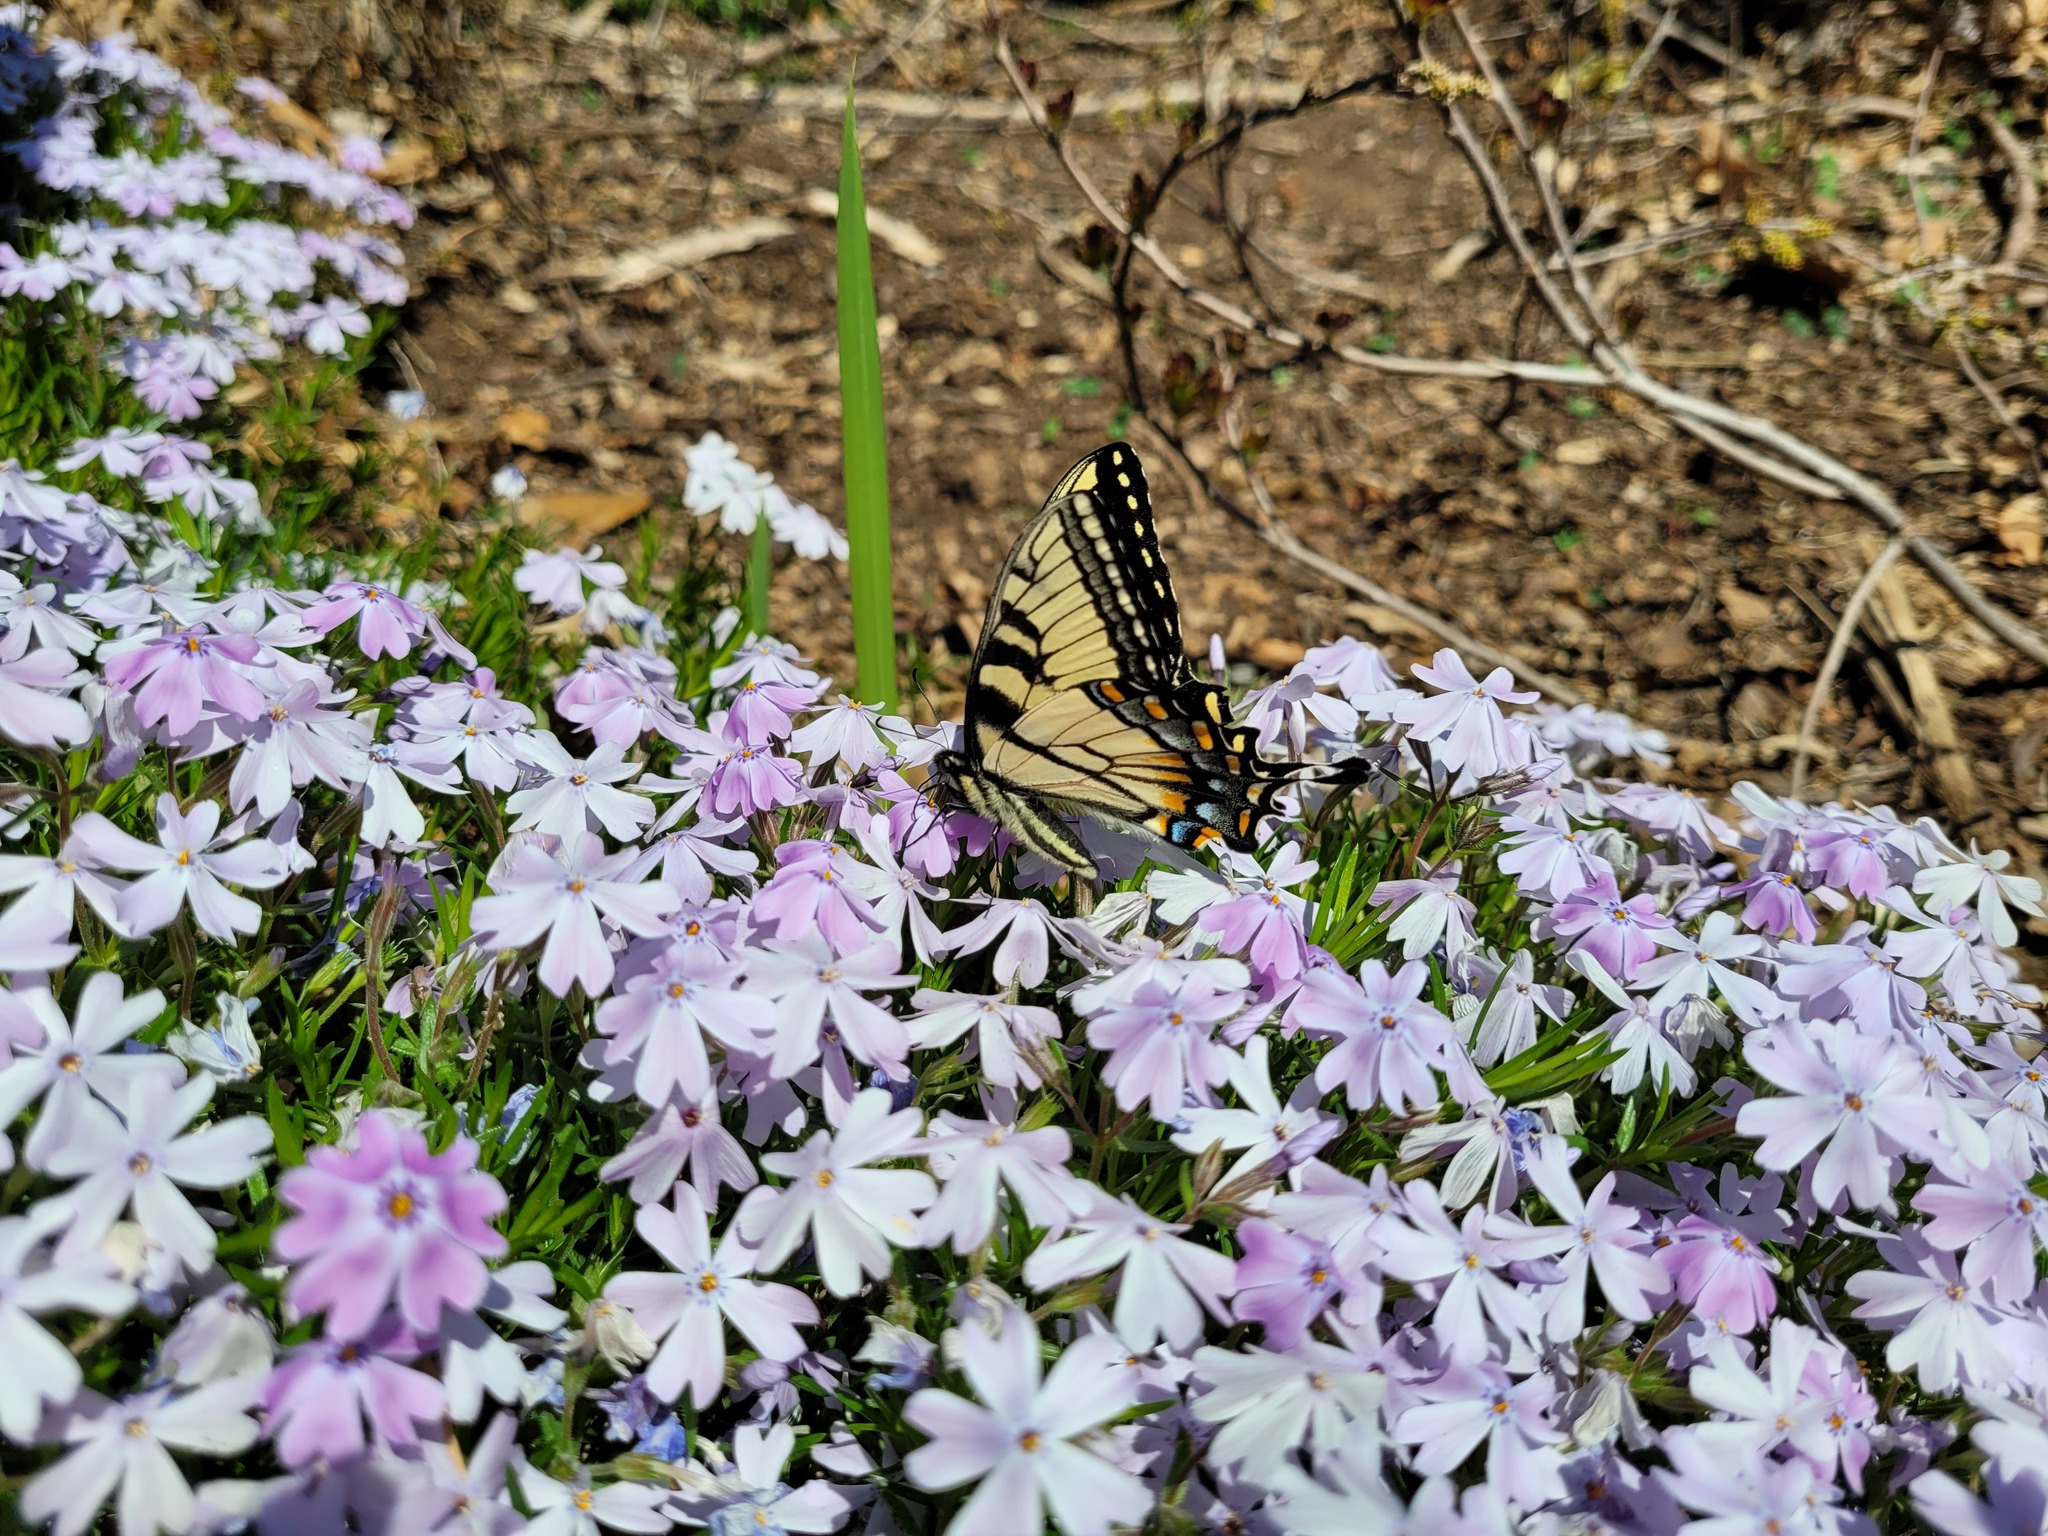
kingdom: Animalia
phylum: Arthropoda
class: Insecta
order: Lepidoptera
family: Papilionidae
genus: Papilio
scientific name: Papilio glaucus
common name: Tiger swallowtail
